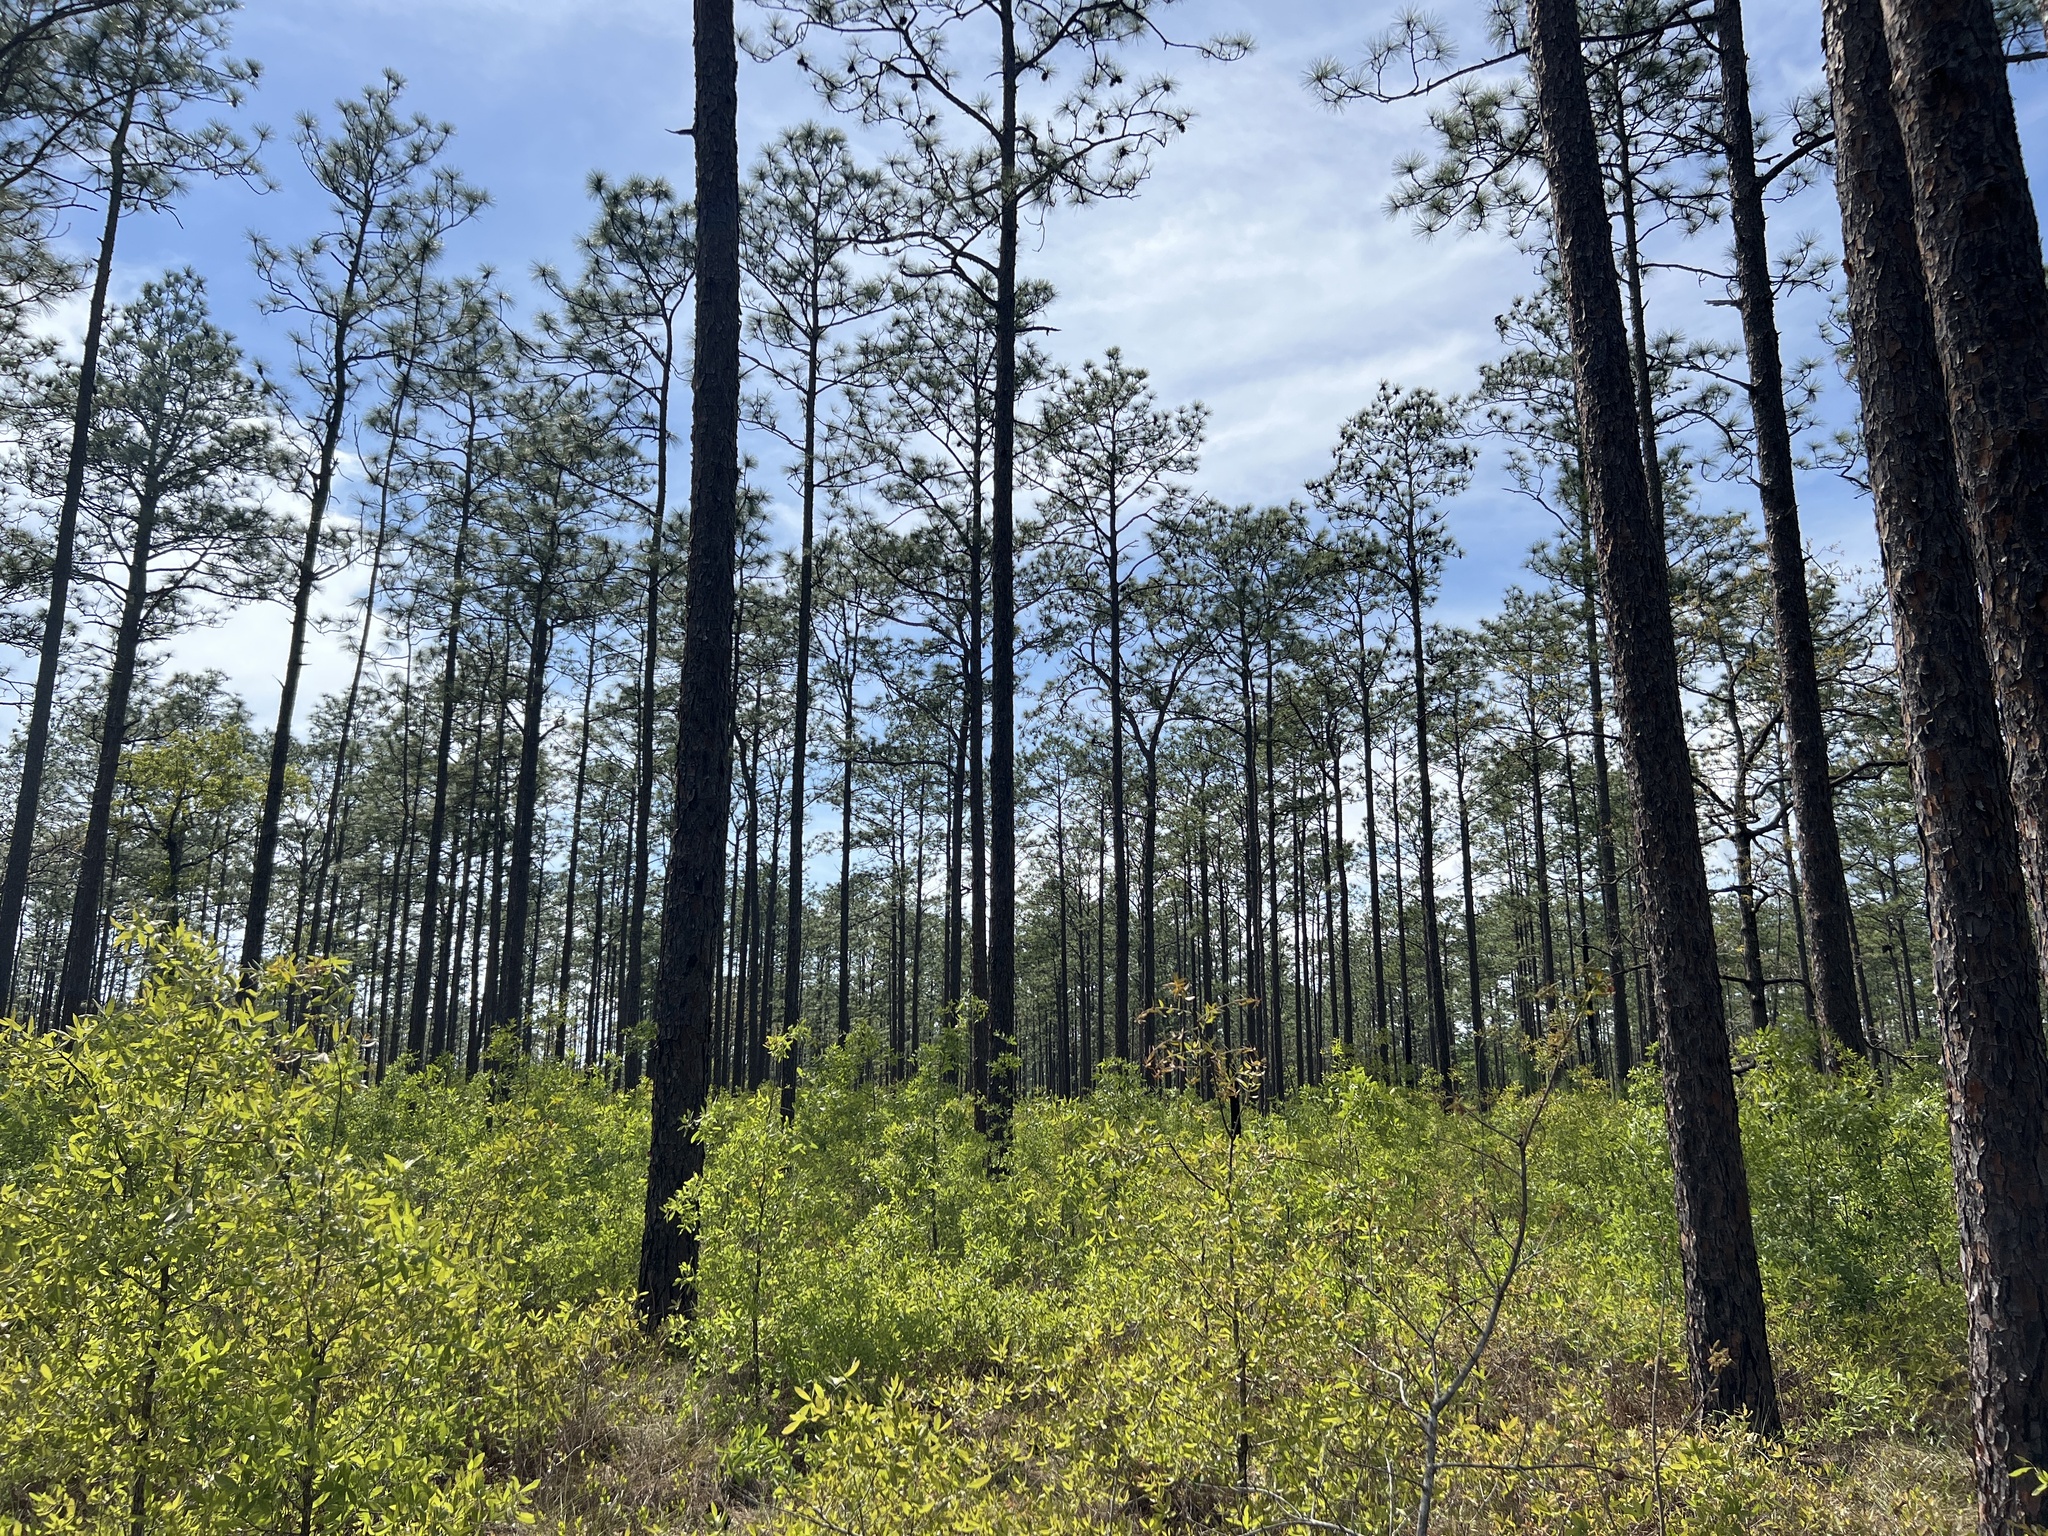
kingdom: Plantae
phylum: Tracheophyta
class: Pinopsida
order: Pinales
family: Pinaceae
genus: Pinus
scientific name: Pinus palustris
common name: Longleaf pine
